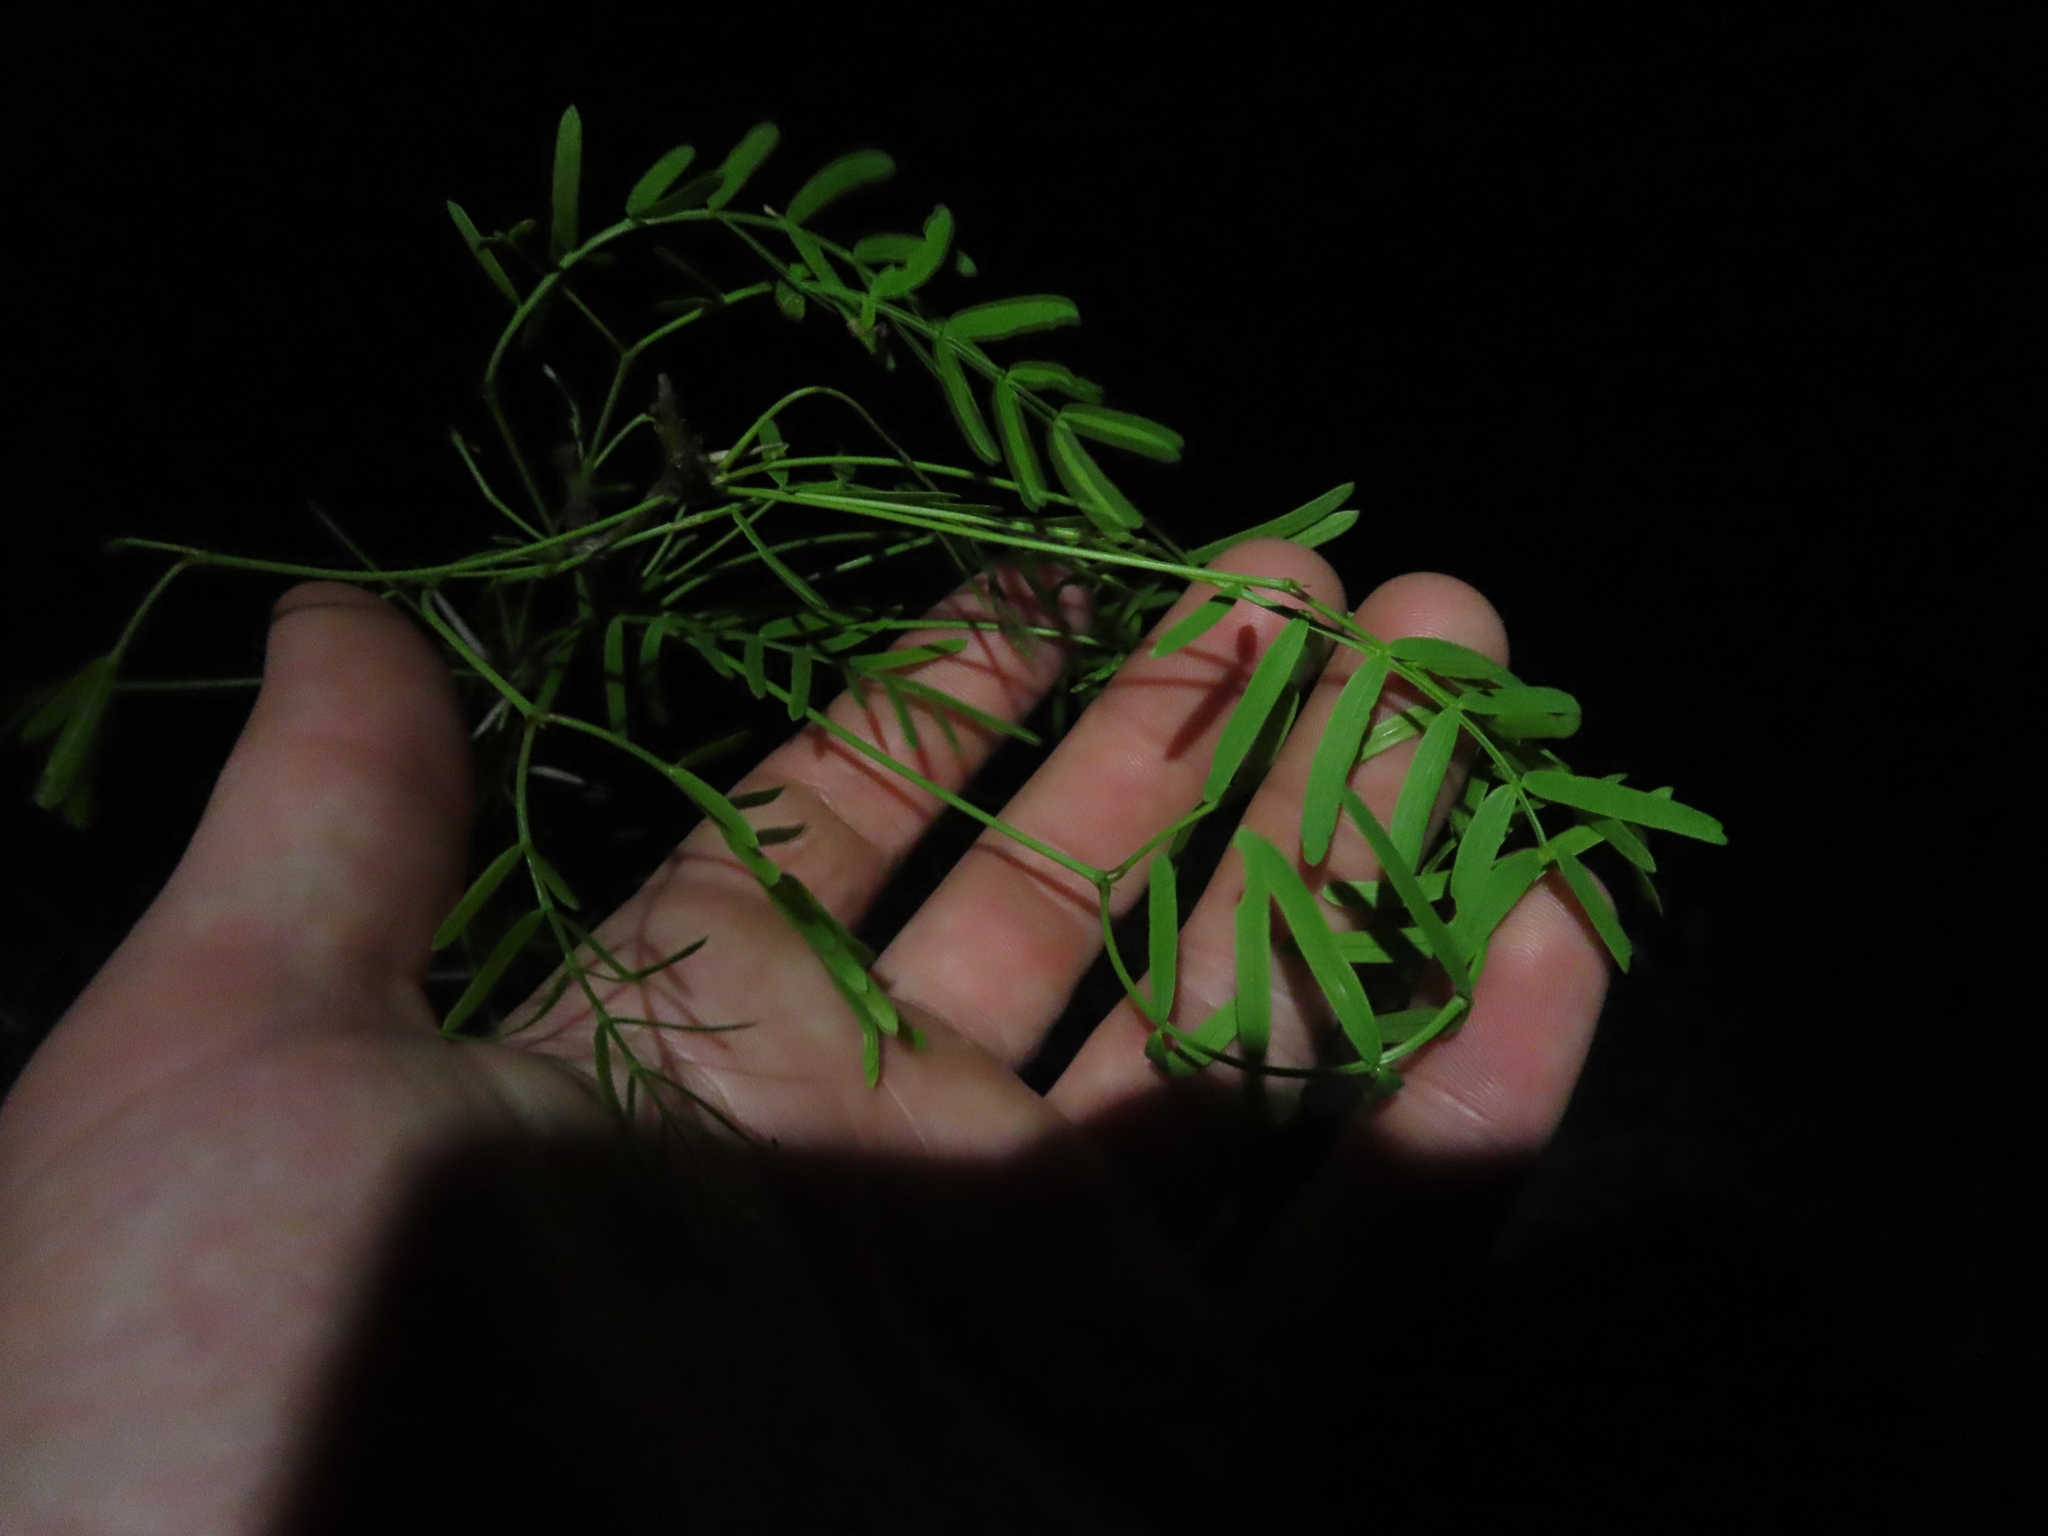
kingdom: Plantae
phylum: Tracheophyta
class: Magnoliopsida
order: Fabales
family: Fabaceae
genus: Prosopis
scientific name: Prosopis glandulosa
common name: Honey mesquite
